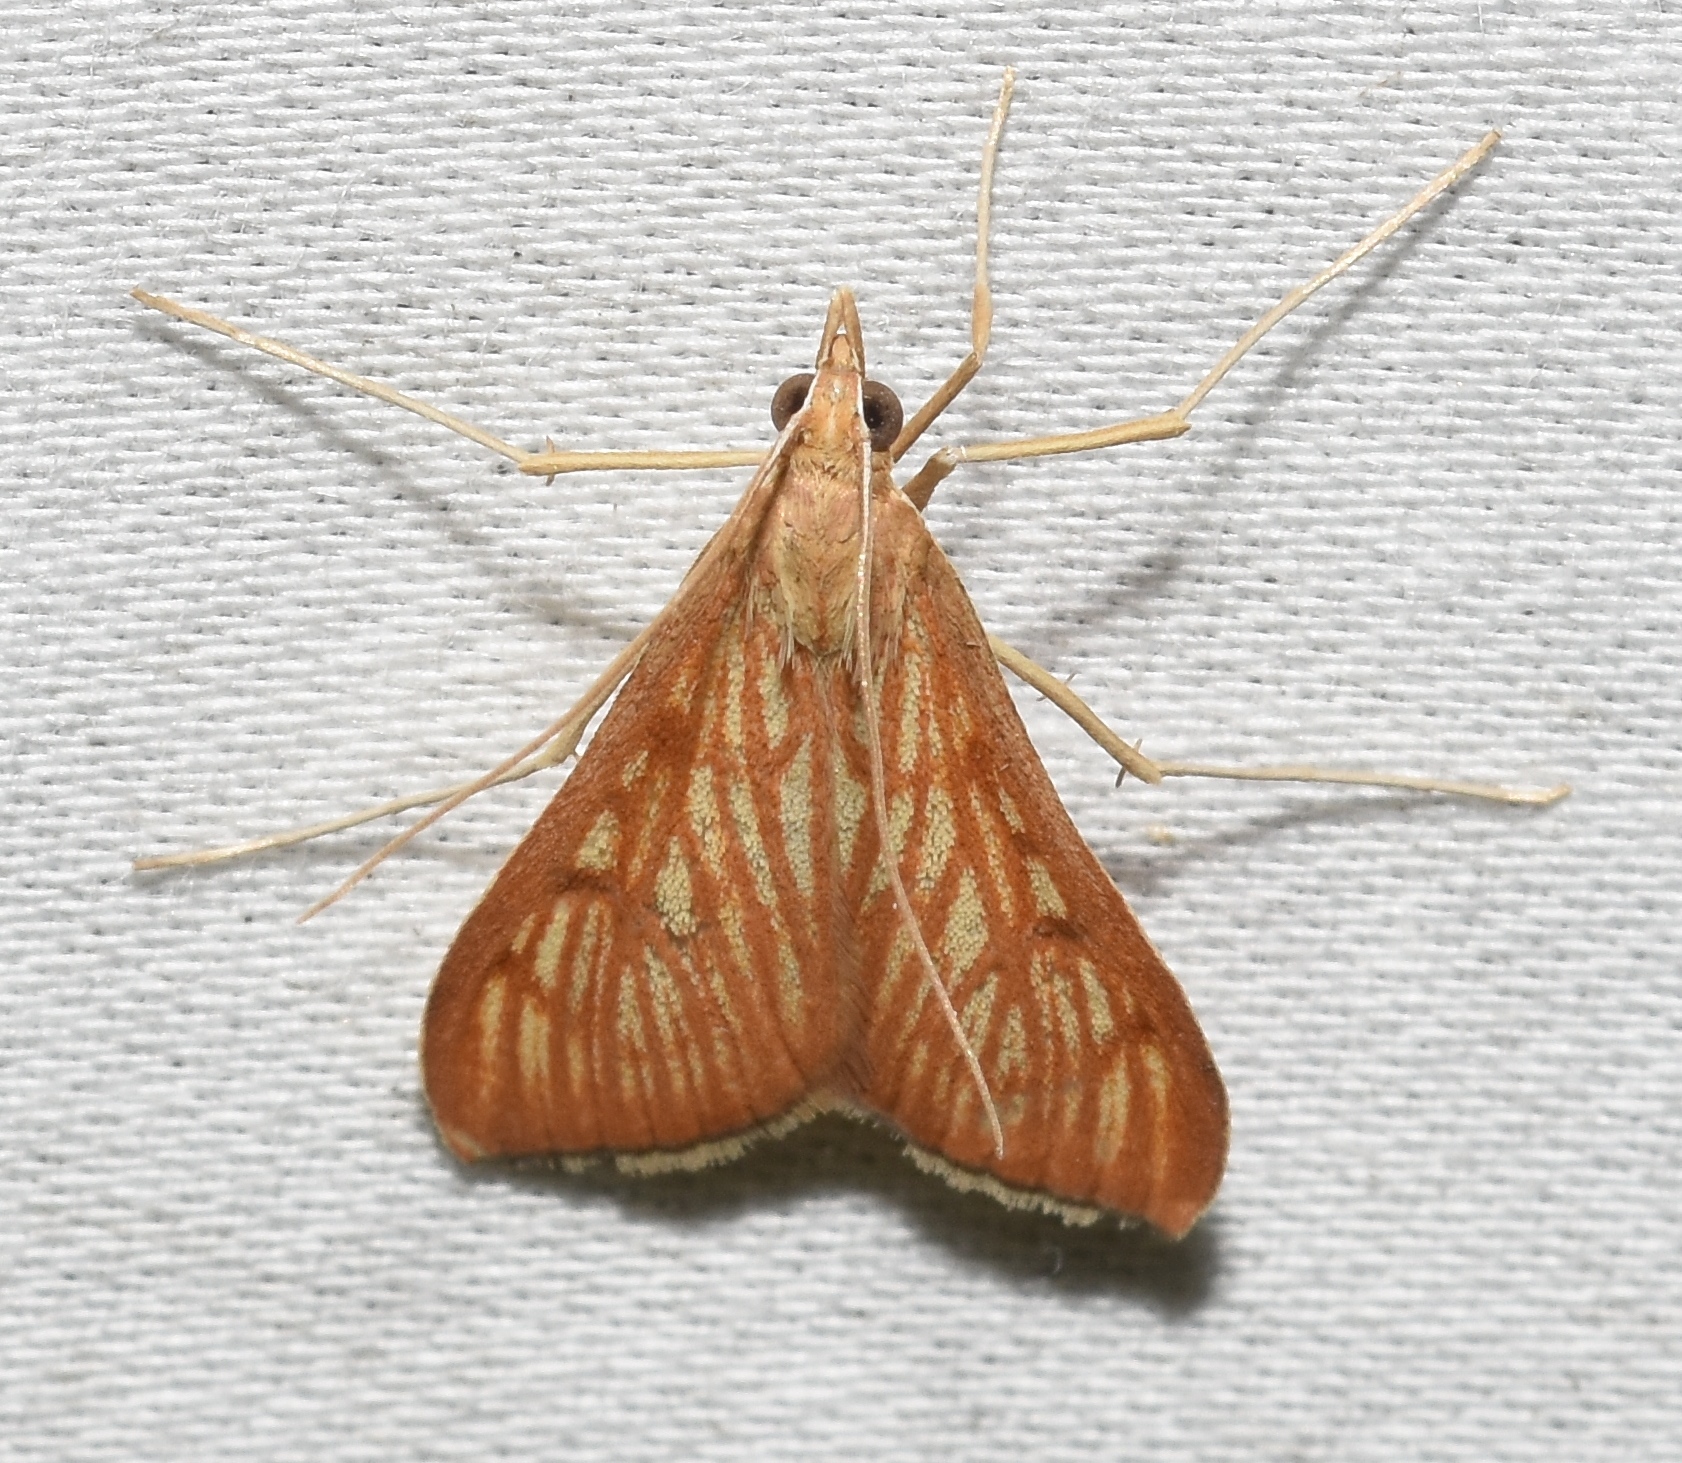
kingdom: Animalia
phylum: Arthropoda
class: Insecta
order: Lepidoptera
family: Crambidae
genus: Antigastra
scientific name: Antigastra catalaunalis
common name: Spanish dot
